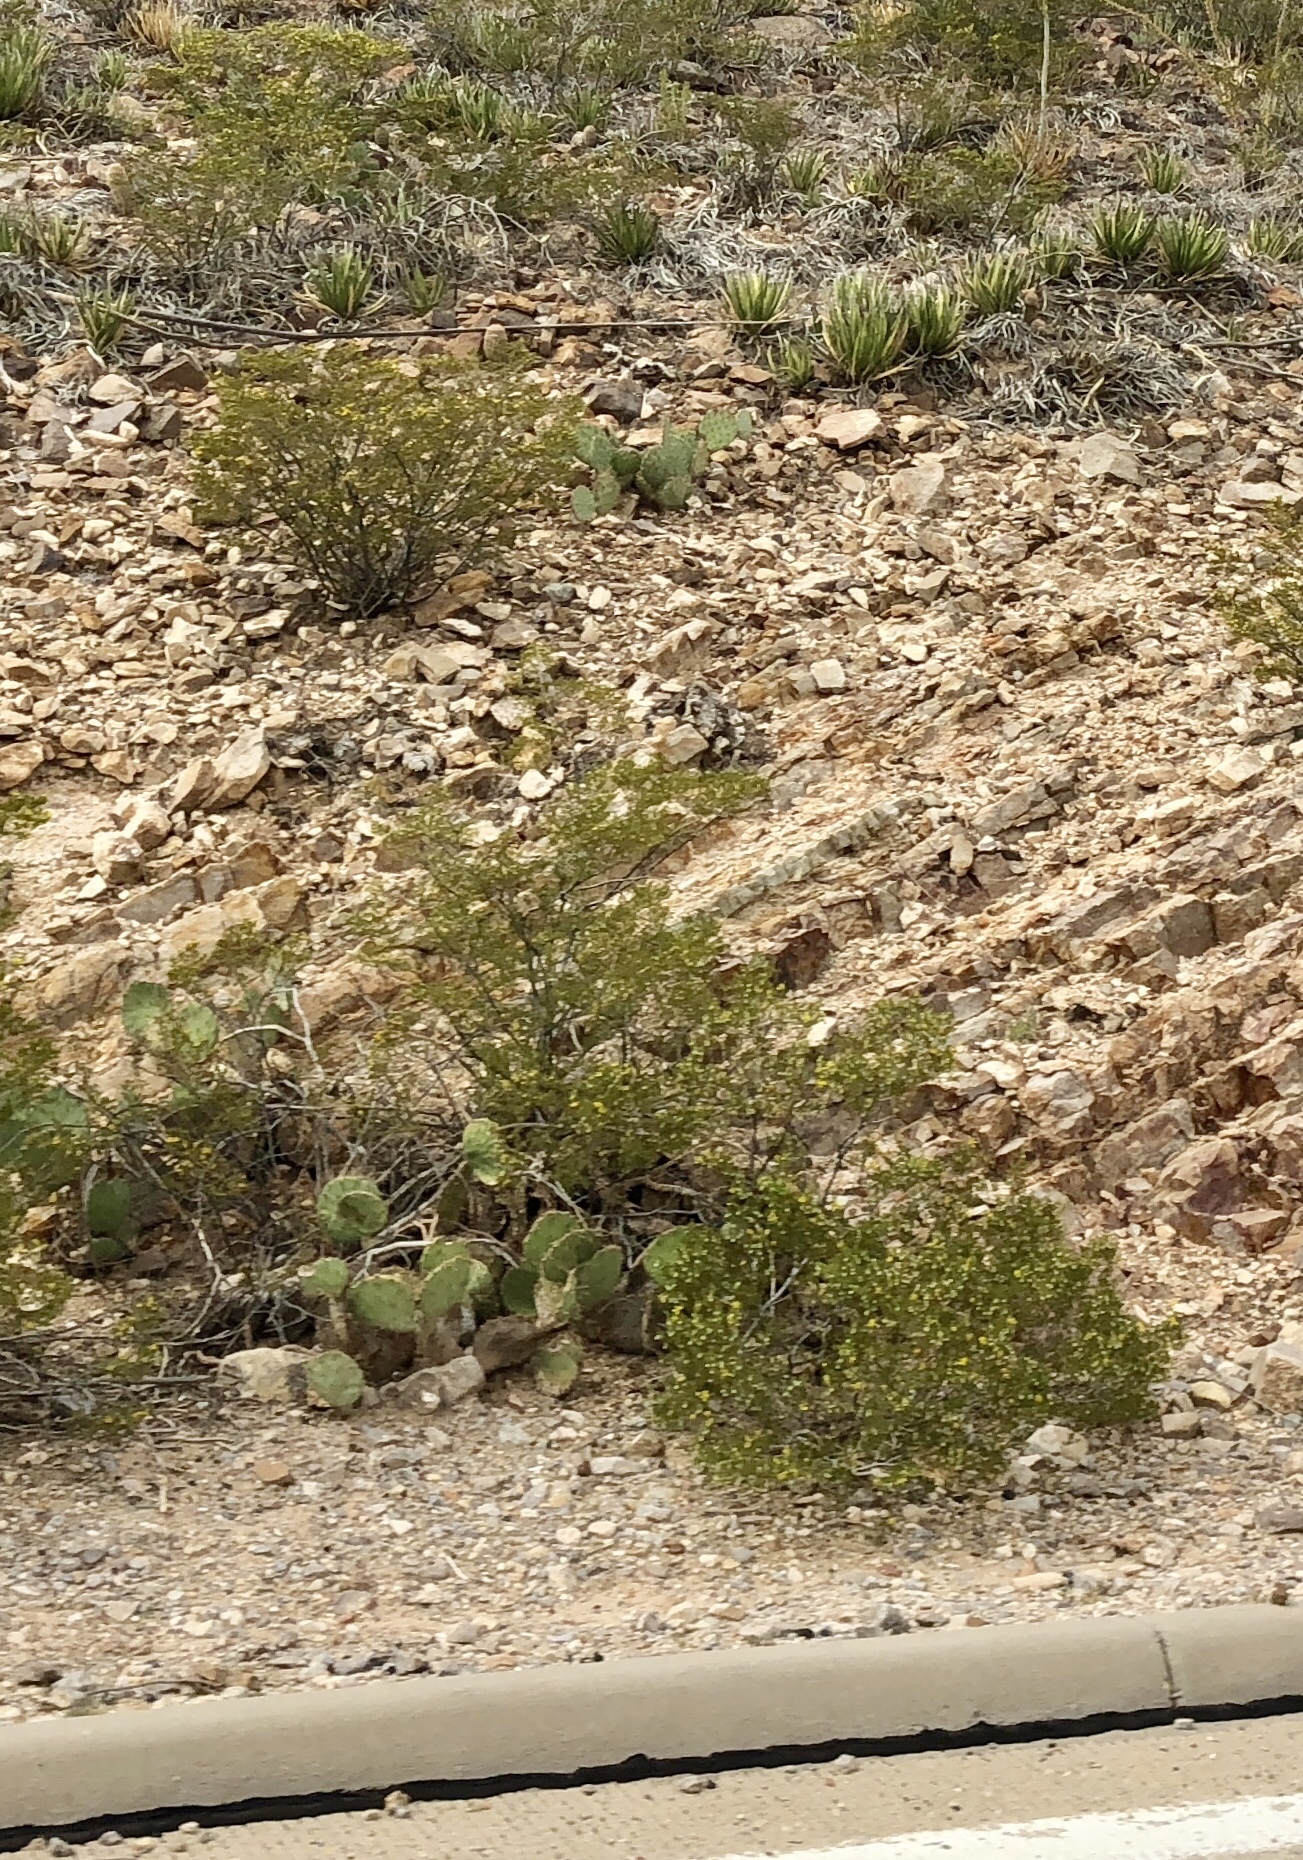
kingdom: Plantae
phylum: Tracheophyta
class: Magnoliopsida
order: Zygophyllales
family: Zygophyllaceae
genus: Larrea
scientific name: Larrea tridentata
